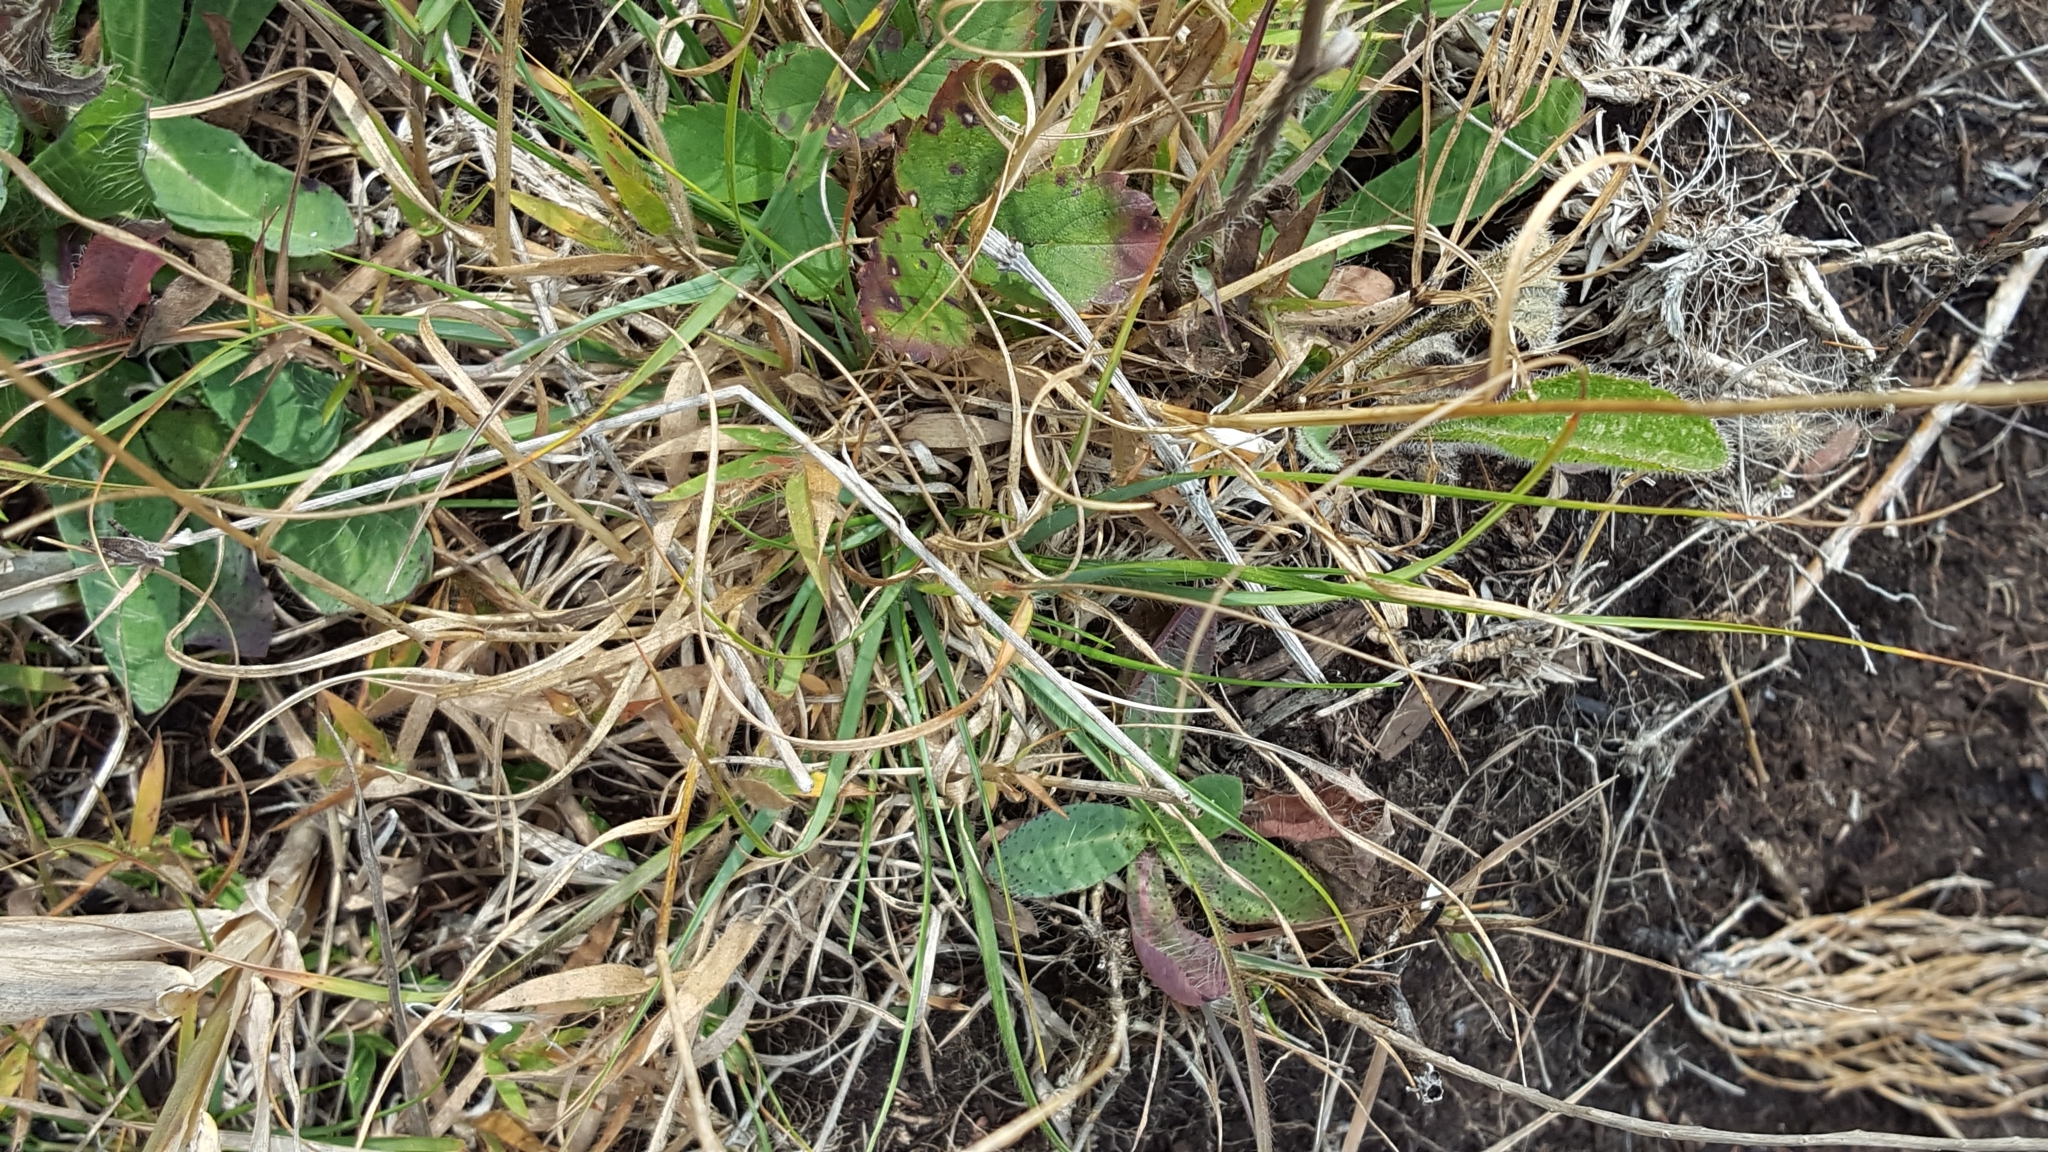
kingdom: Plantae
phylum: Tracheophyta
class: Liliopsida
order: Poales
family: Poaceae
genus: Danthonia
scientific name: Danthonia spicata
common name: Common wild oatgrass
